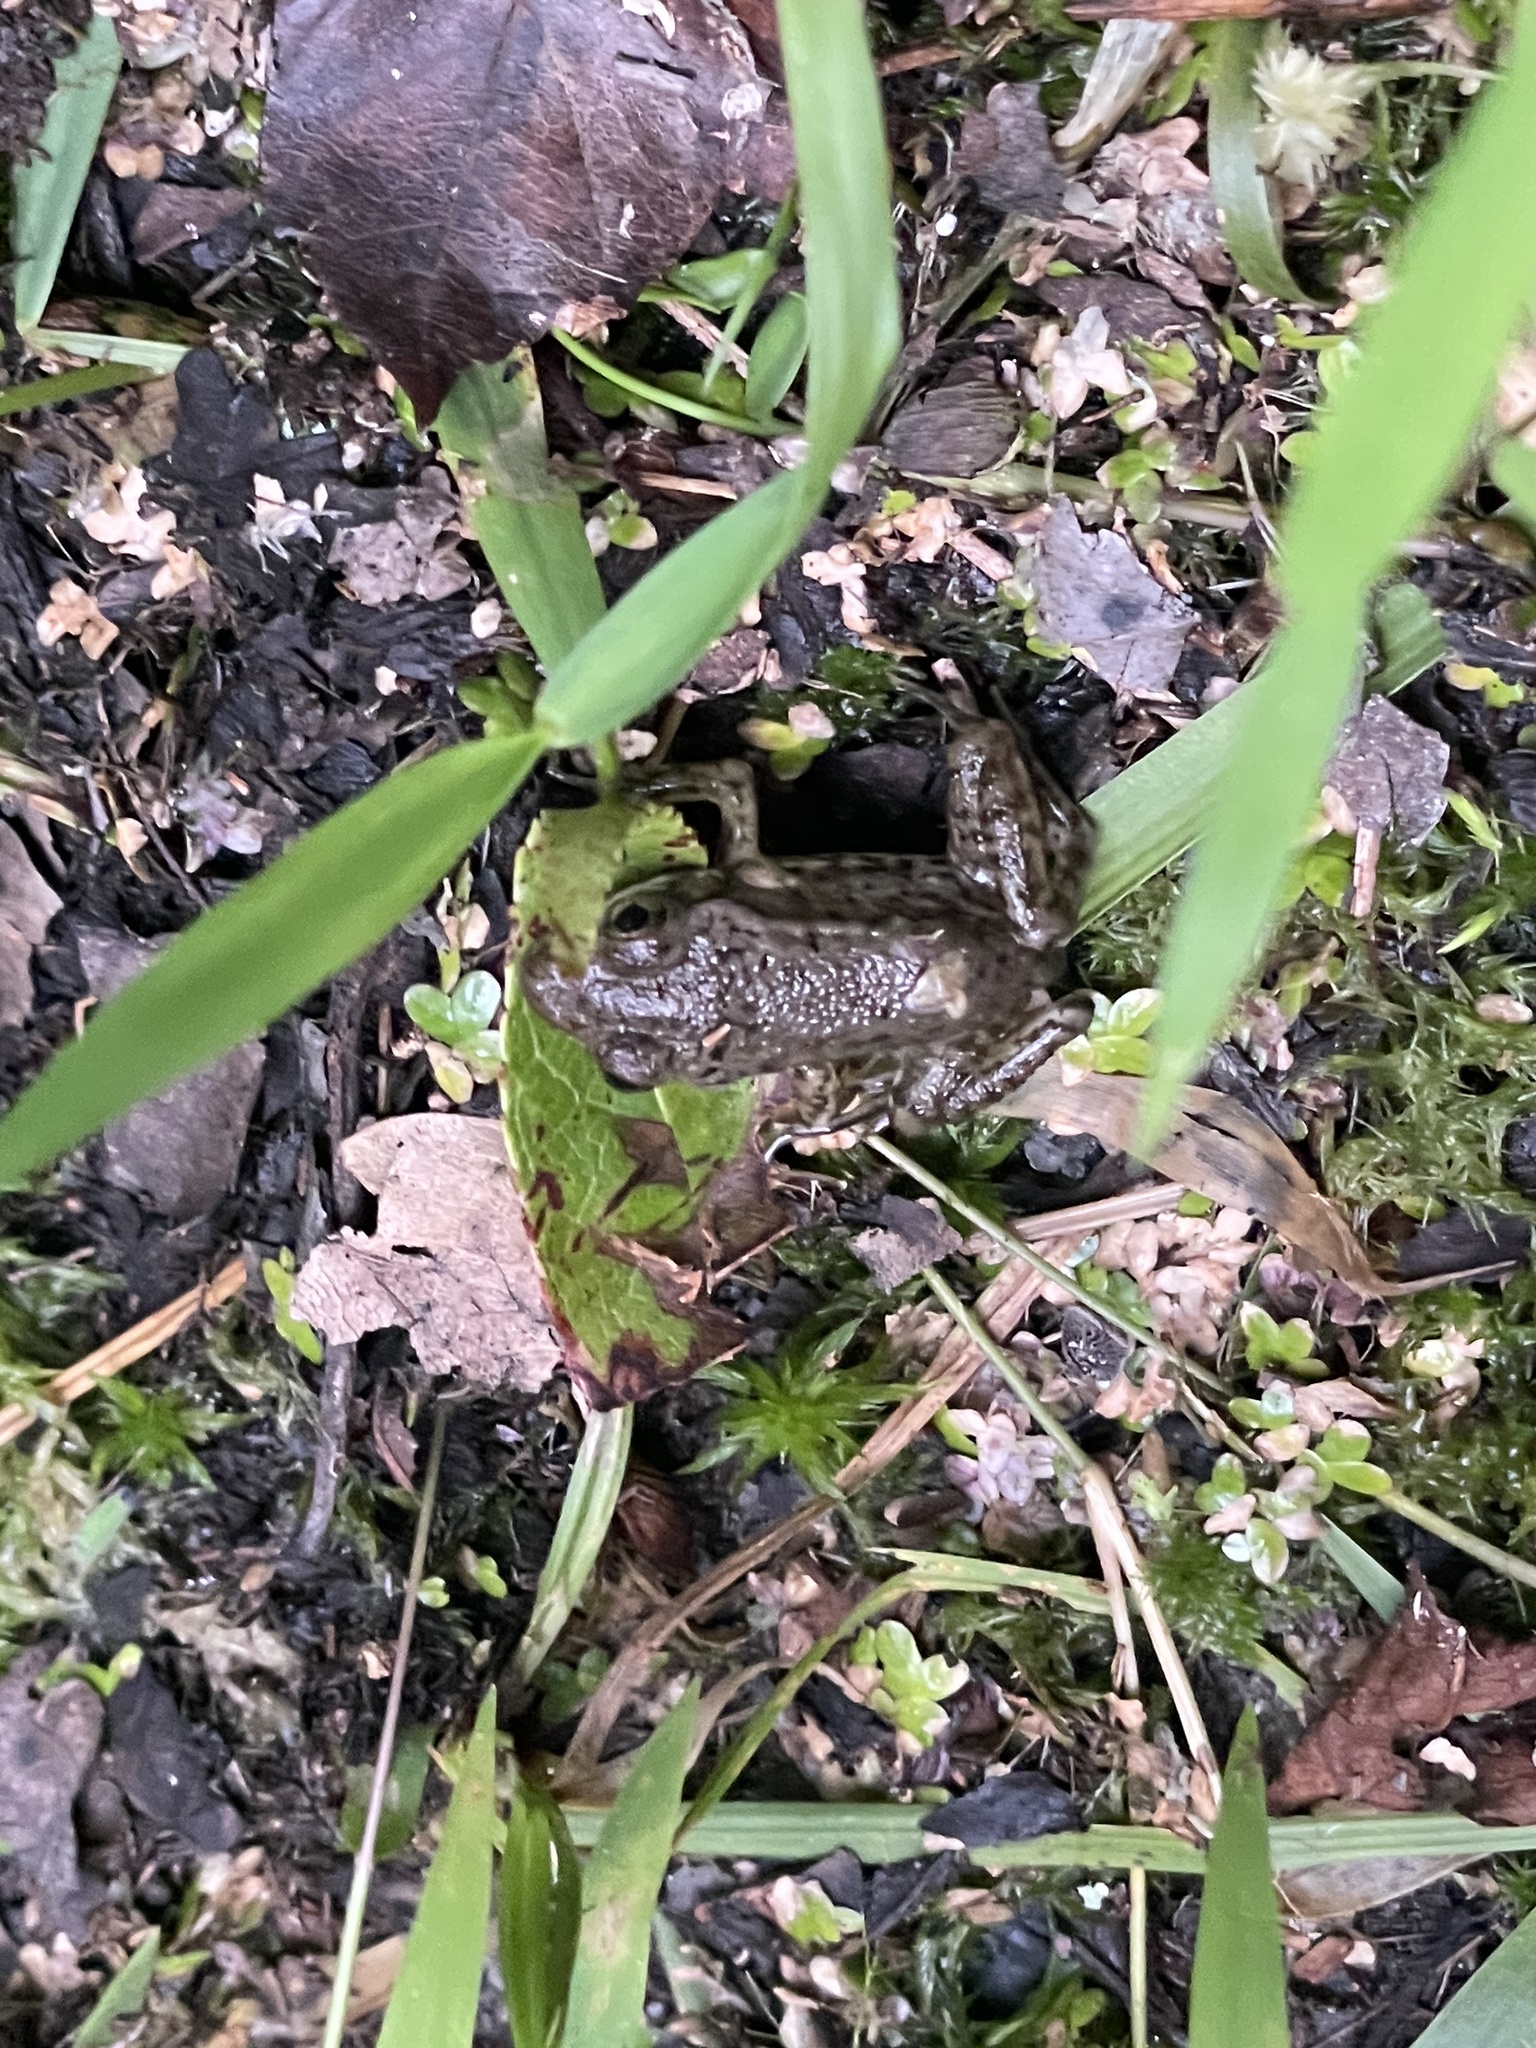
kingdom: Animalia
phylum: Chordata
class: Amphibia
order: Anura
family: Ranidae
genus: Lithobates
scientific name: Lithobates clamitans
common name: Green frog
